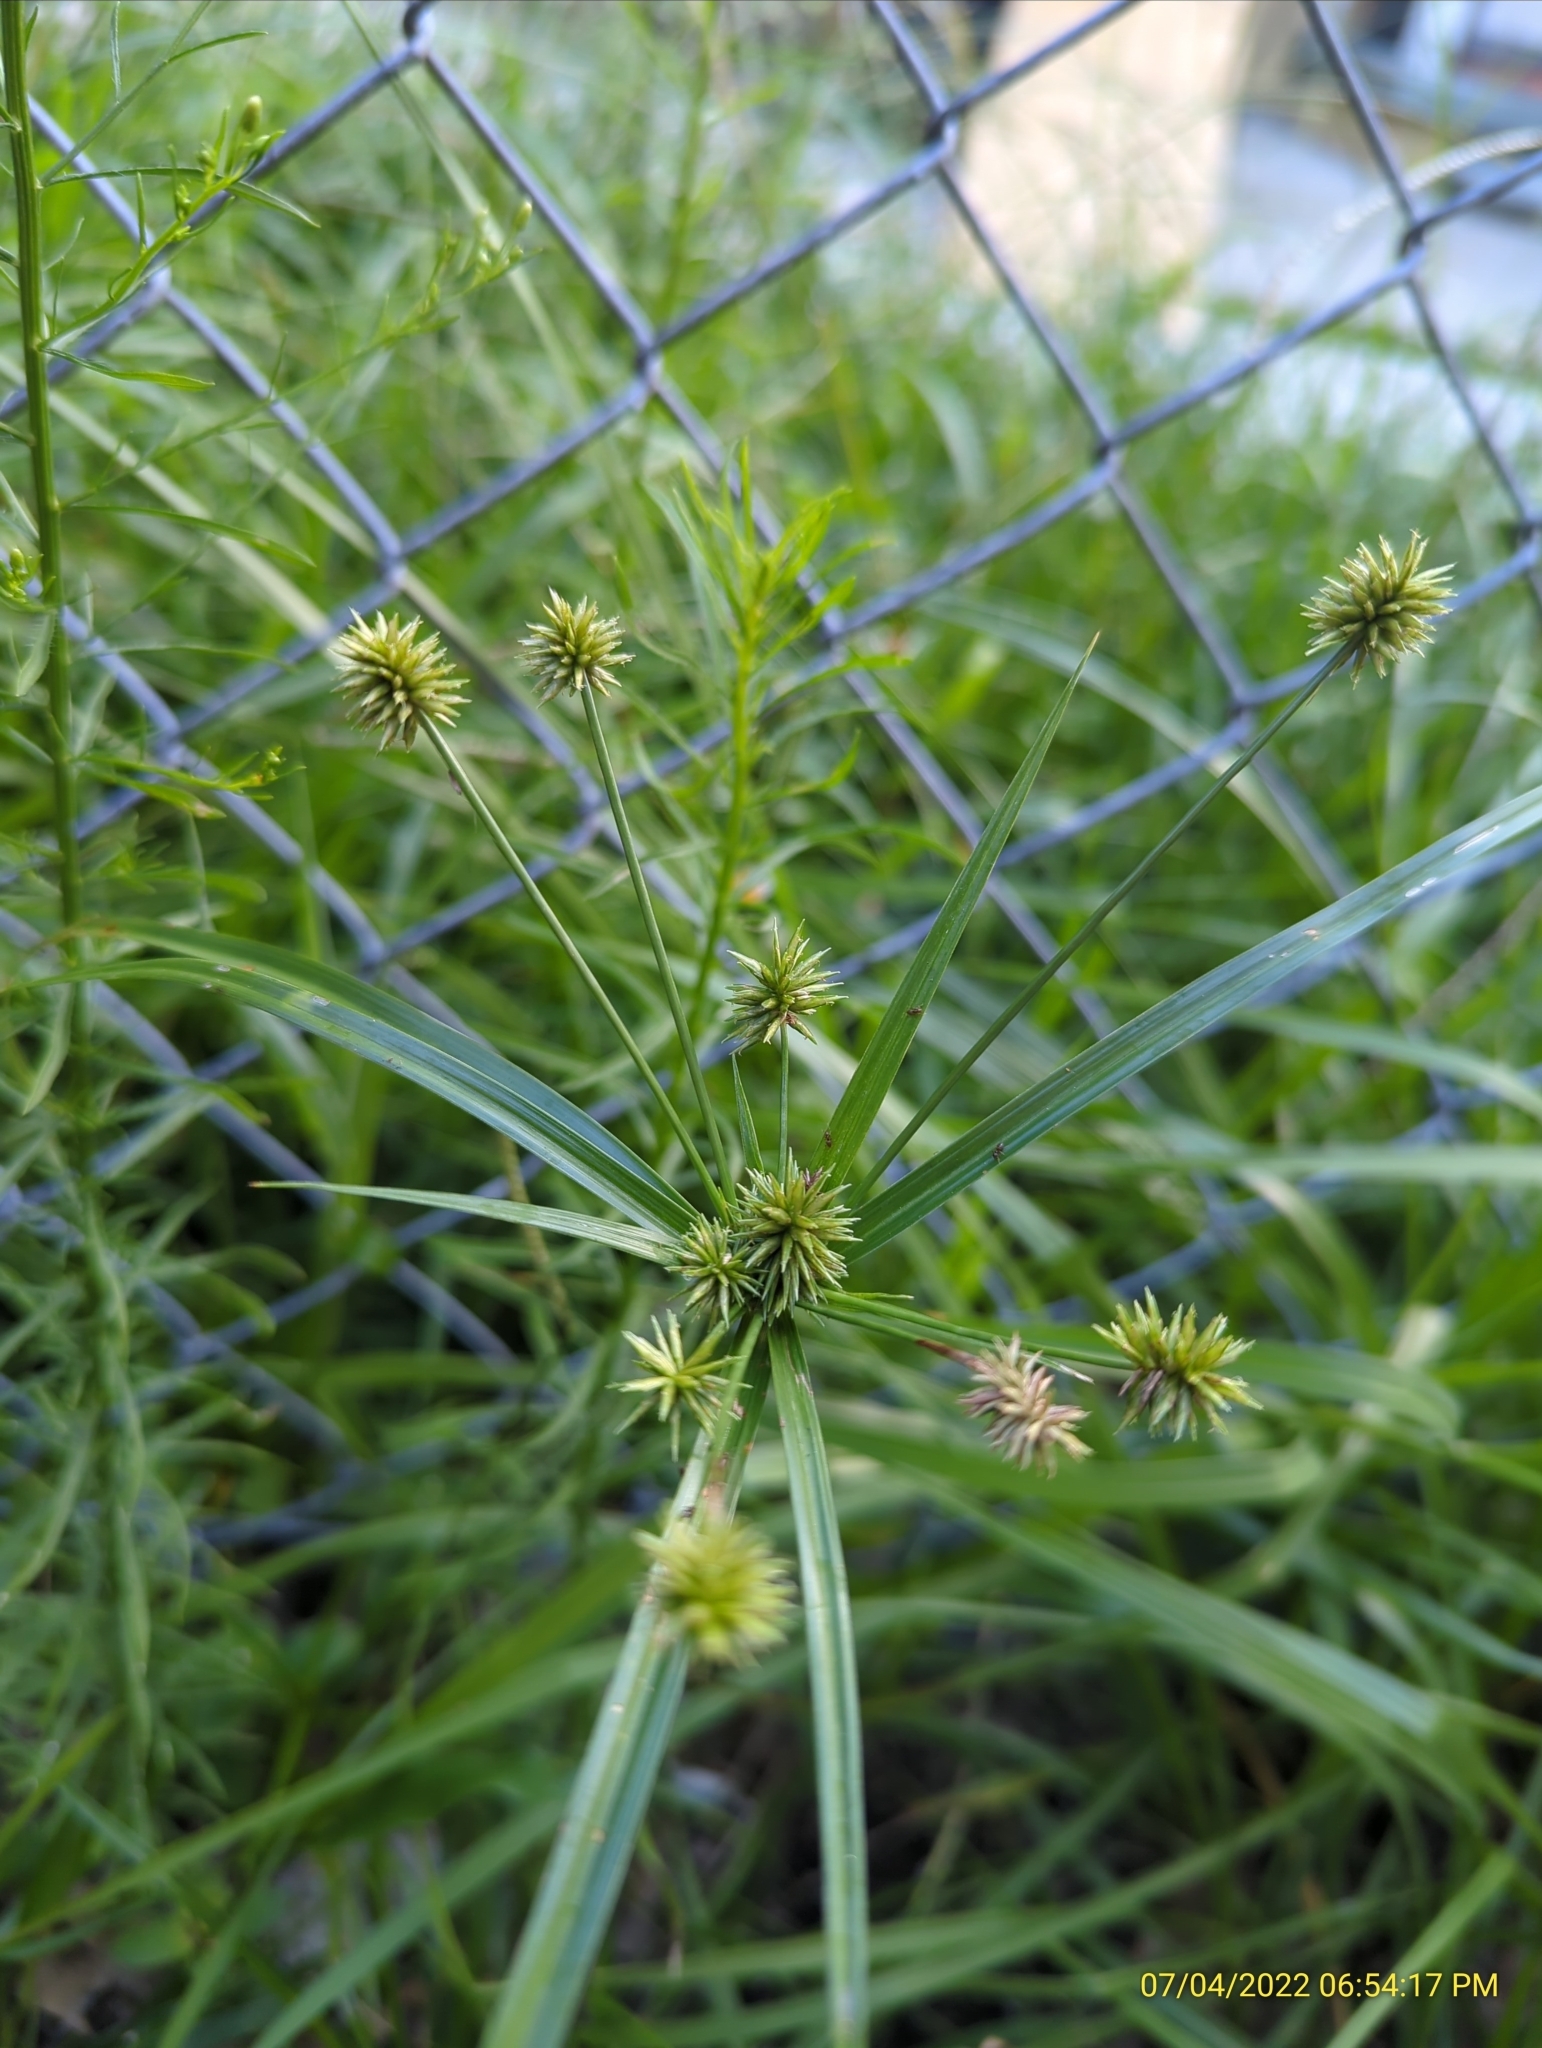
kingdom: Plantae
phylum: Tracheophyta
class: Liliopsida
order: Poales
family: Cyperaceae
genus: Cyperus
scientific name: Cyperus croceus
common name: Baldwin's flatsedge
